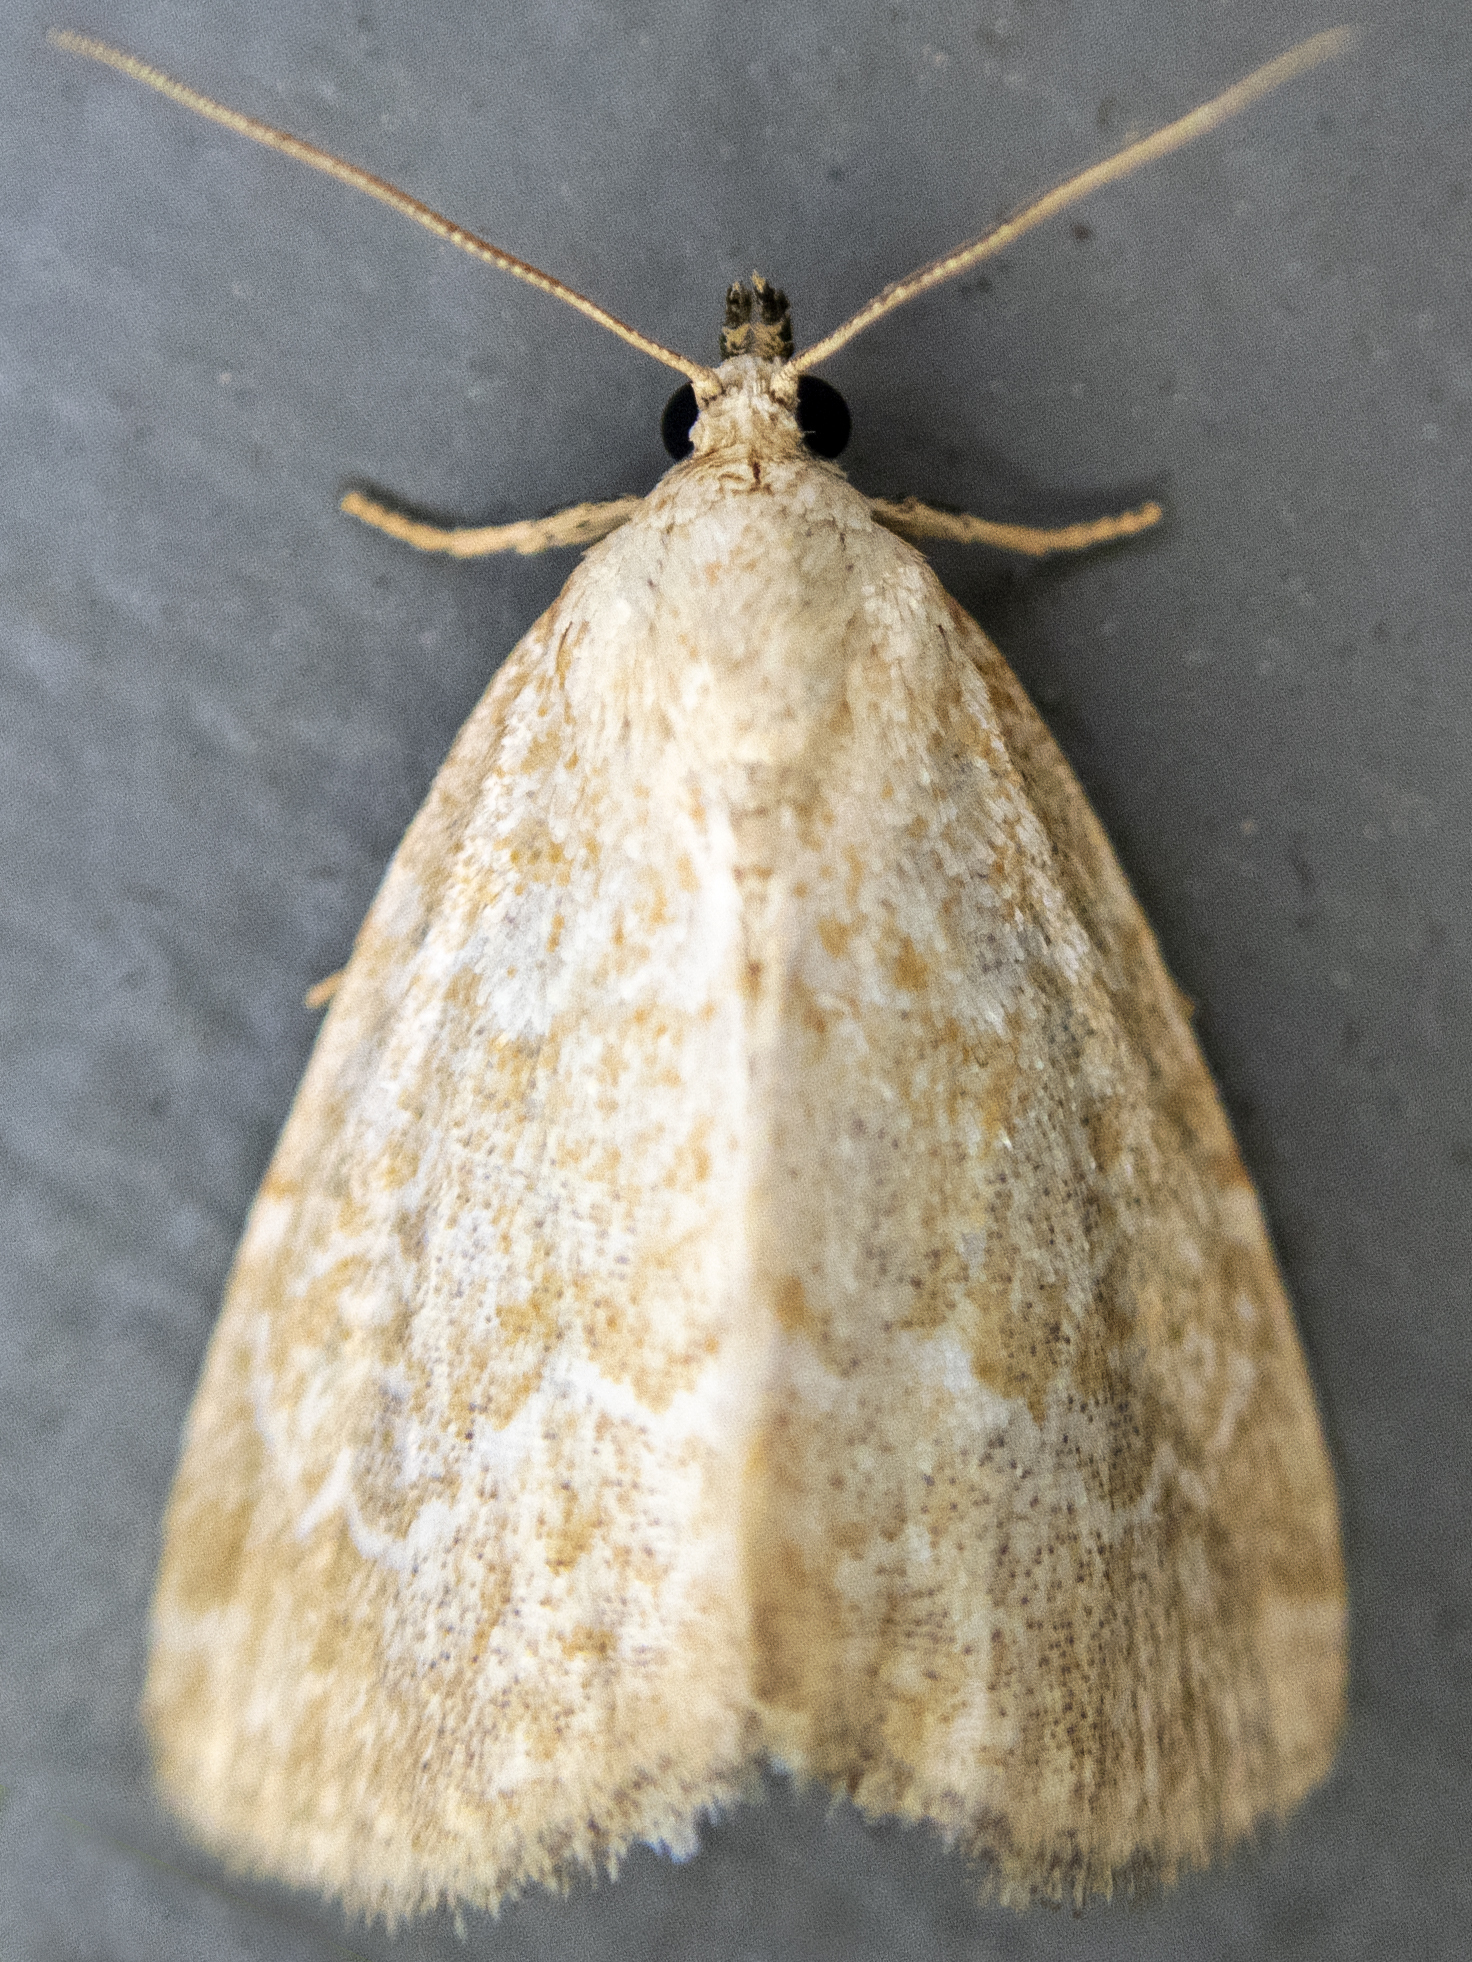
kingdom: Animalia
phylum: Arthropoda
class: Insecta
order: Lepidoptera
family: Noctuidae
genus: Protodeltote
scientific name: Protodeltote albidula
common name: Pale glyph
